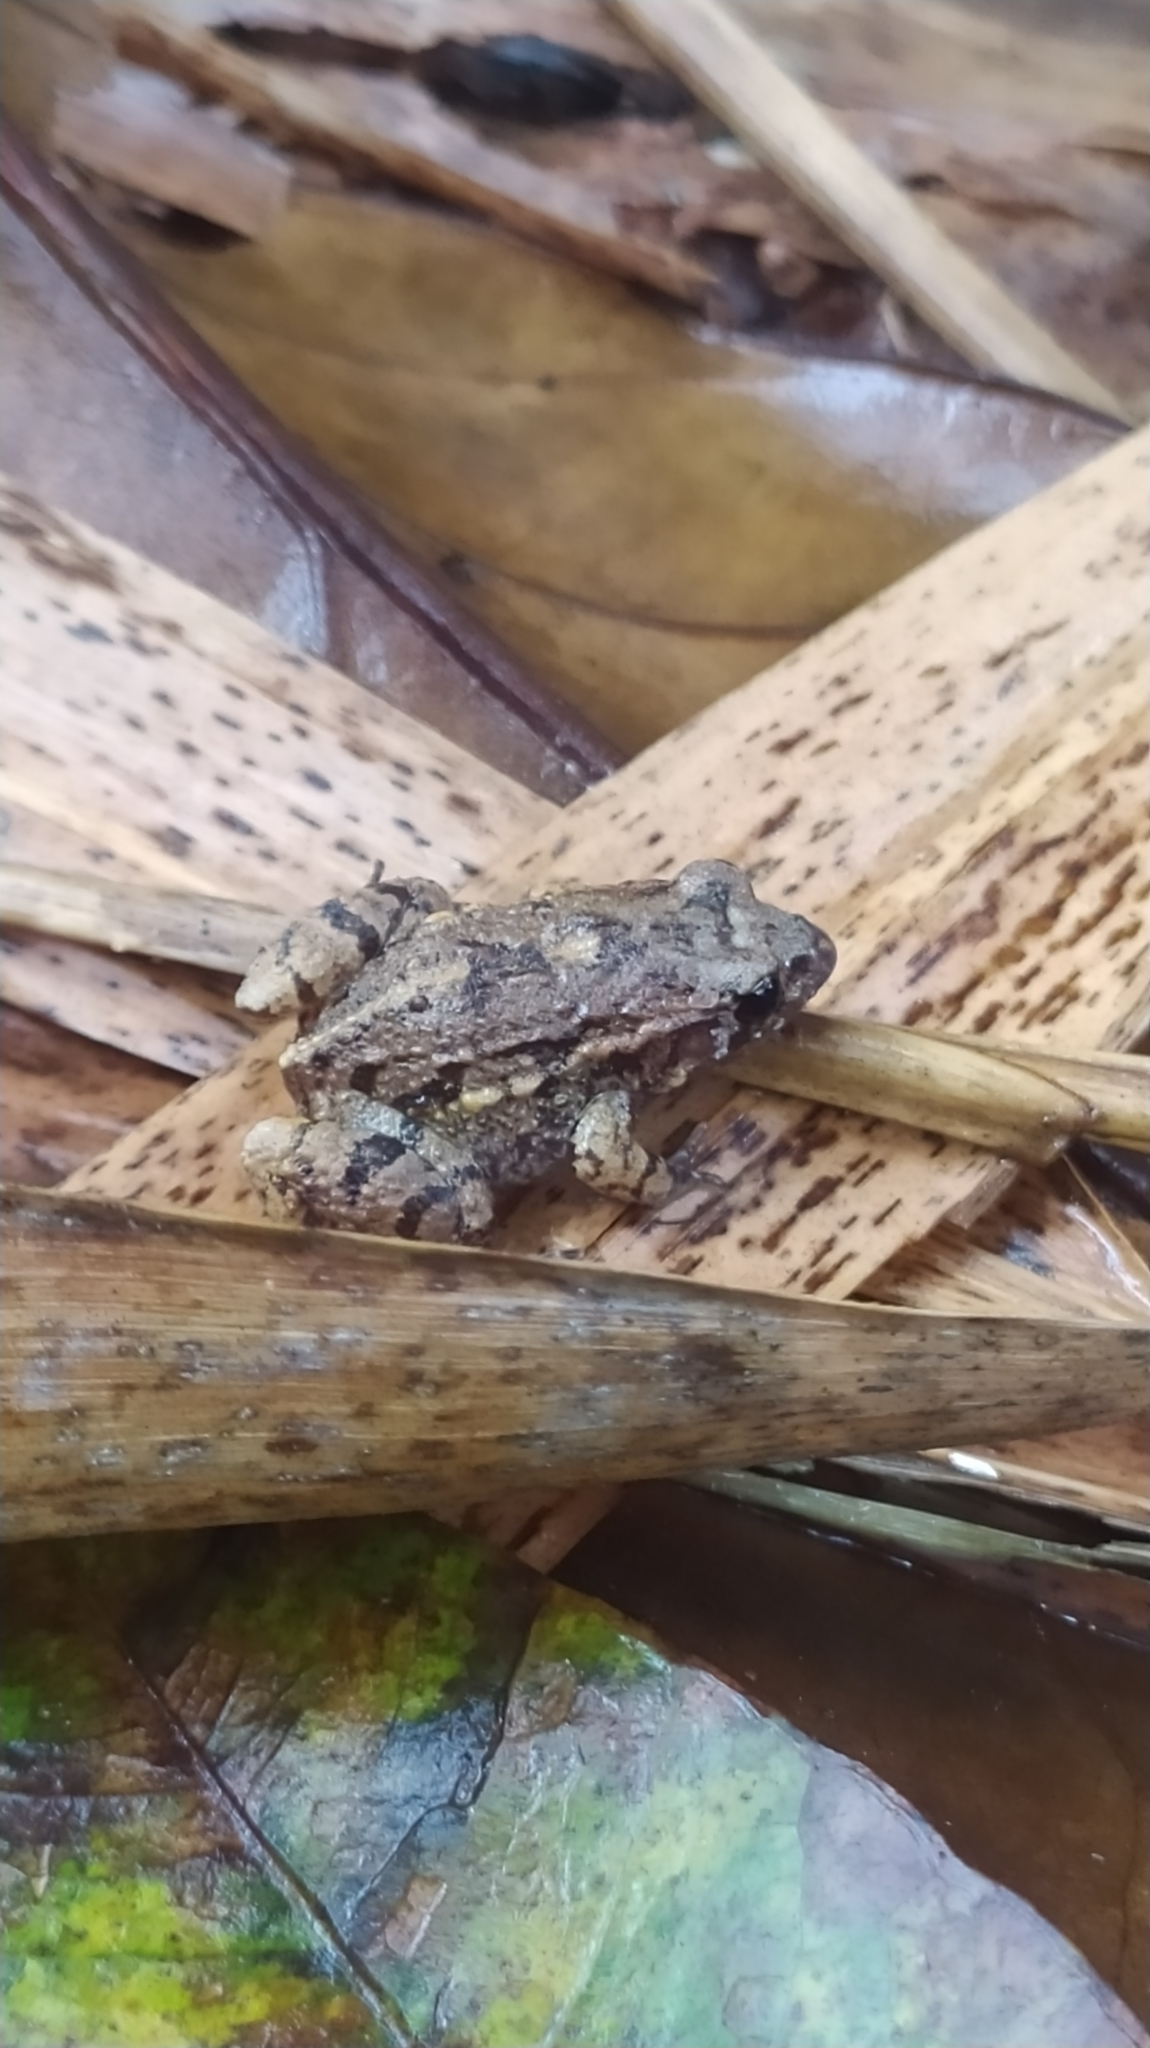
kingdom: Animalia
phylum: Chordata
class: Amphibia
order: Anura
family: Leptodactylidae
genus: Adenomera
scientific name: Adenomera andreae
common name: Lowland tropical bullfrog
